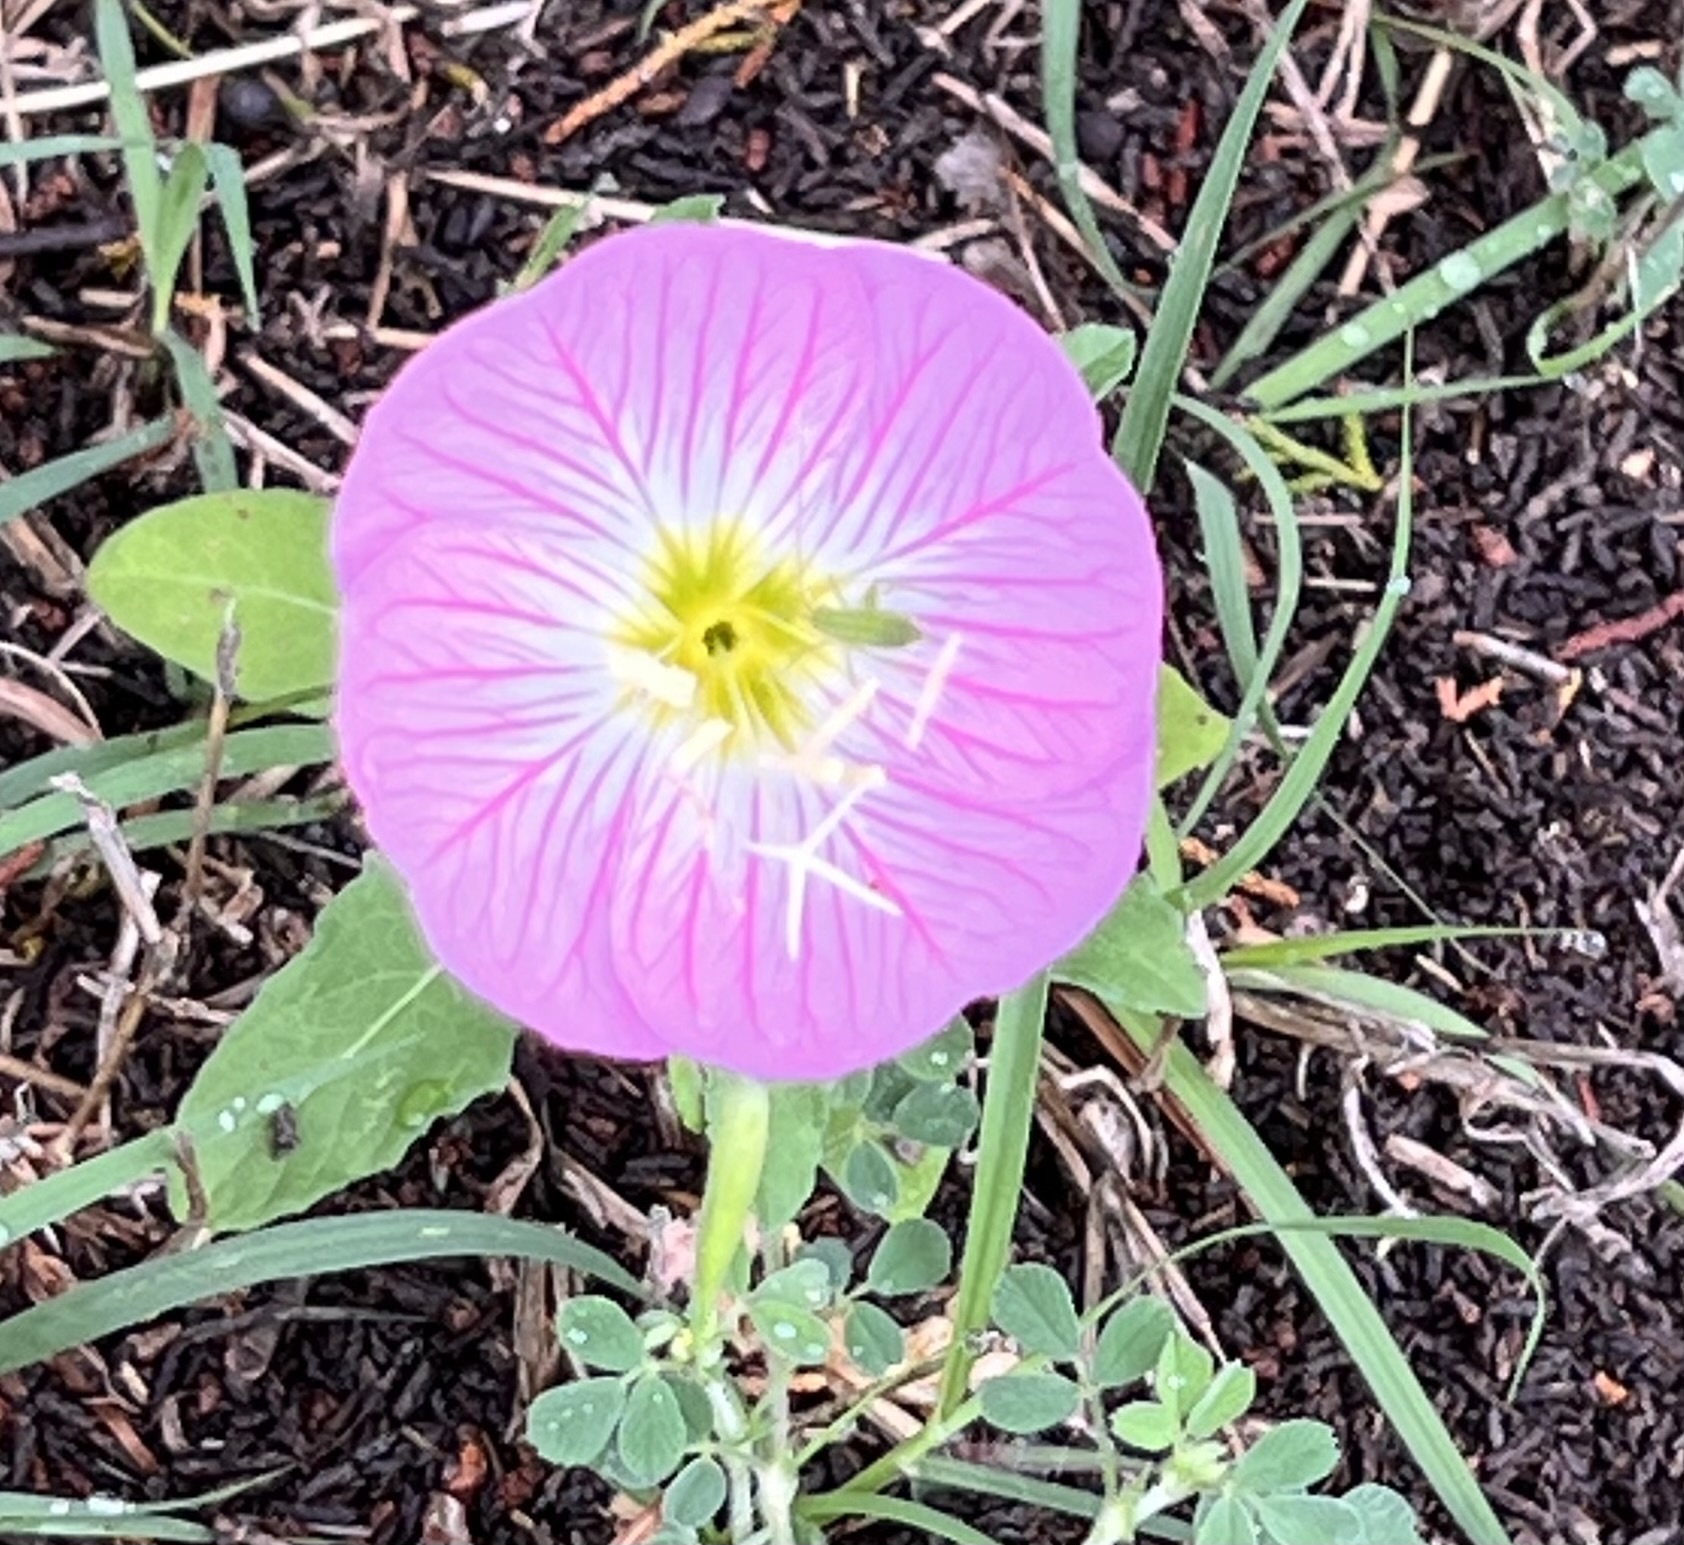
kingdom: Plantae
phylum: Tracheophyta
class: Magnoliopsida
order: Myrtales
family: Onagraceae
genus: Oenothera
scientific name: Oenothera speciosa
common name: White evening-primrose
